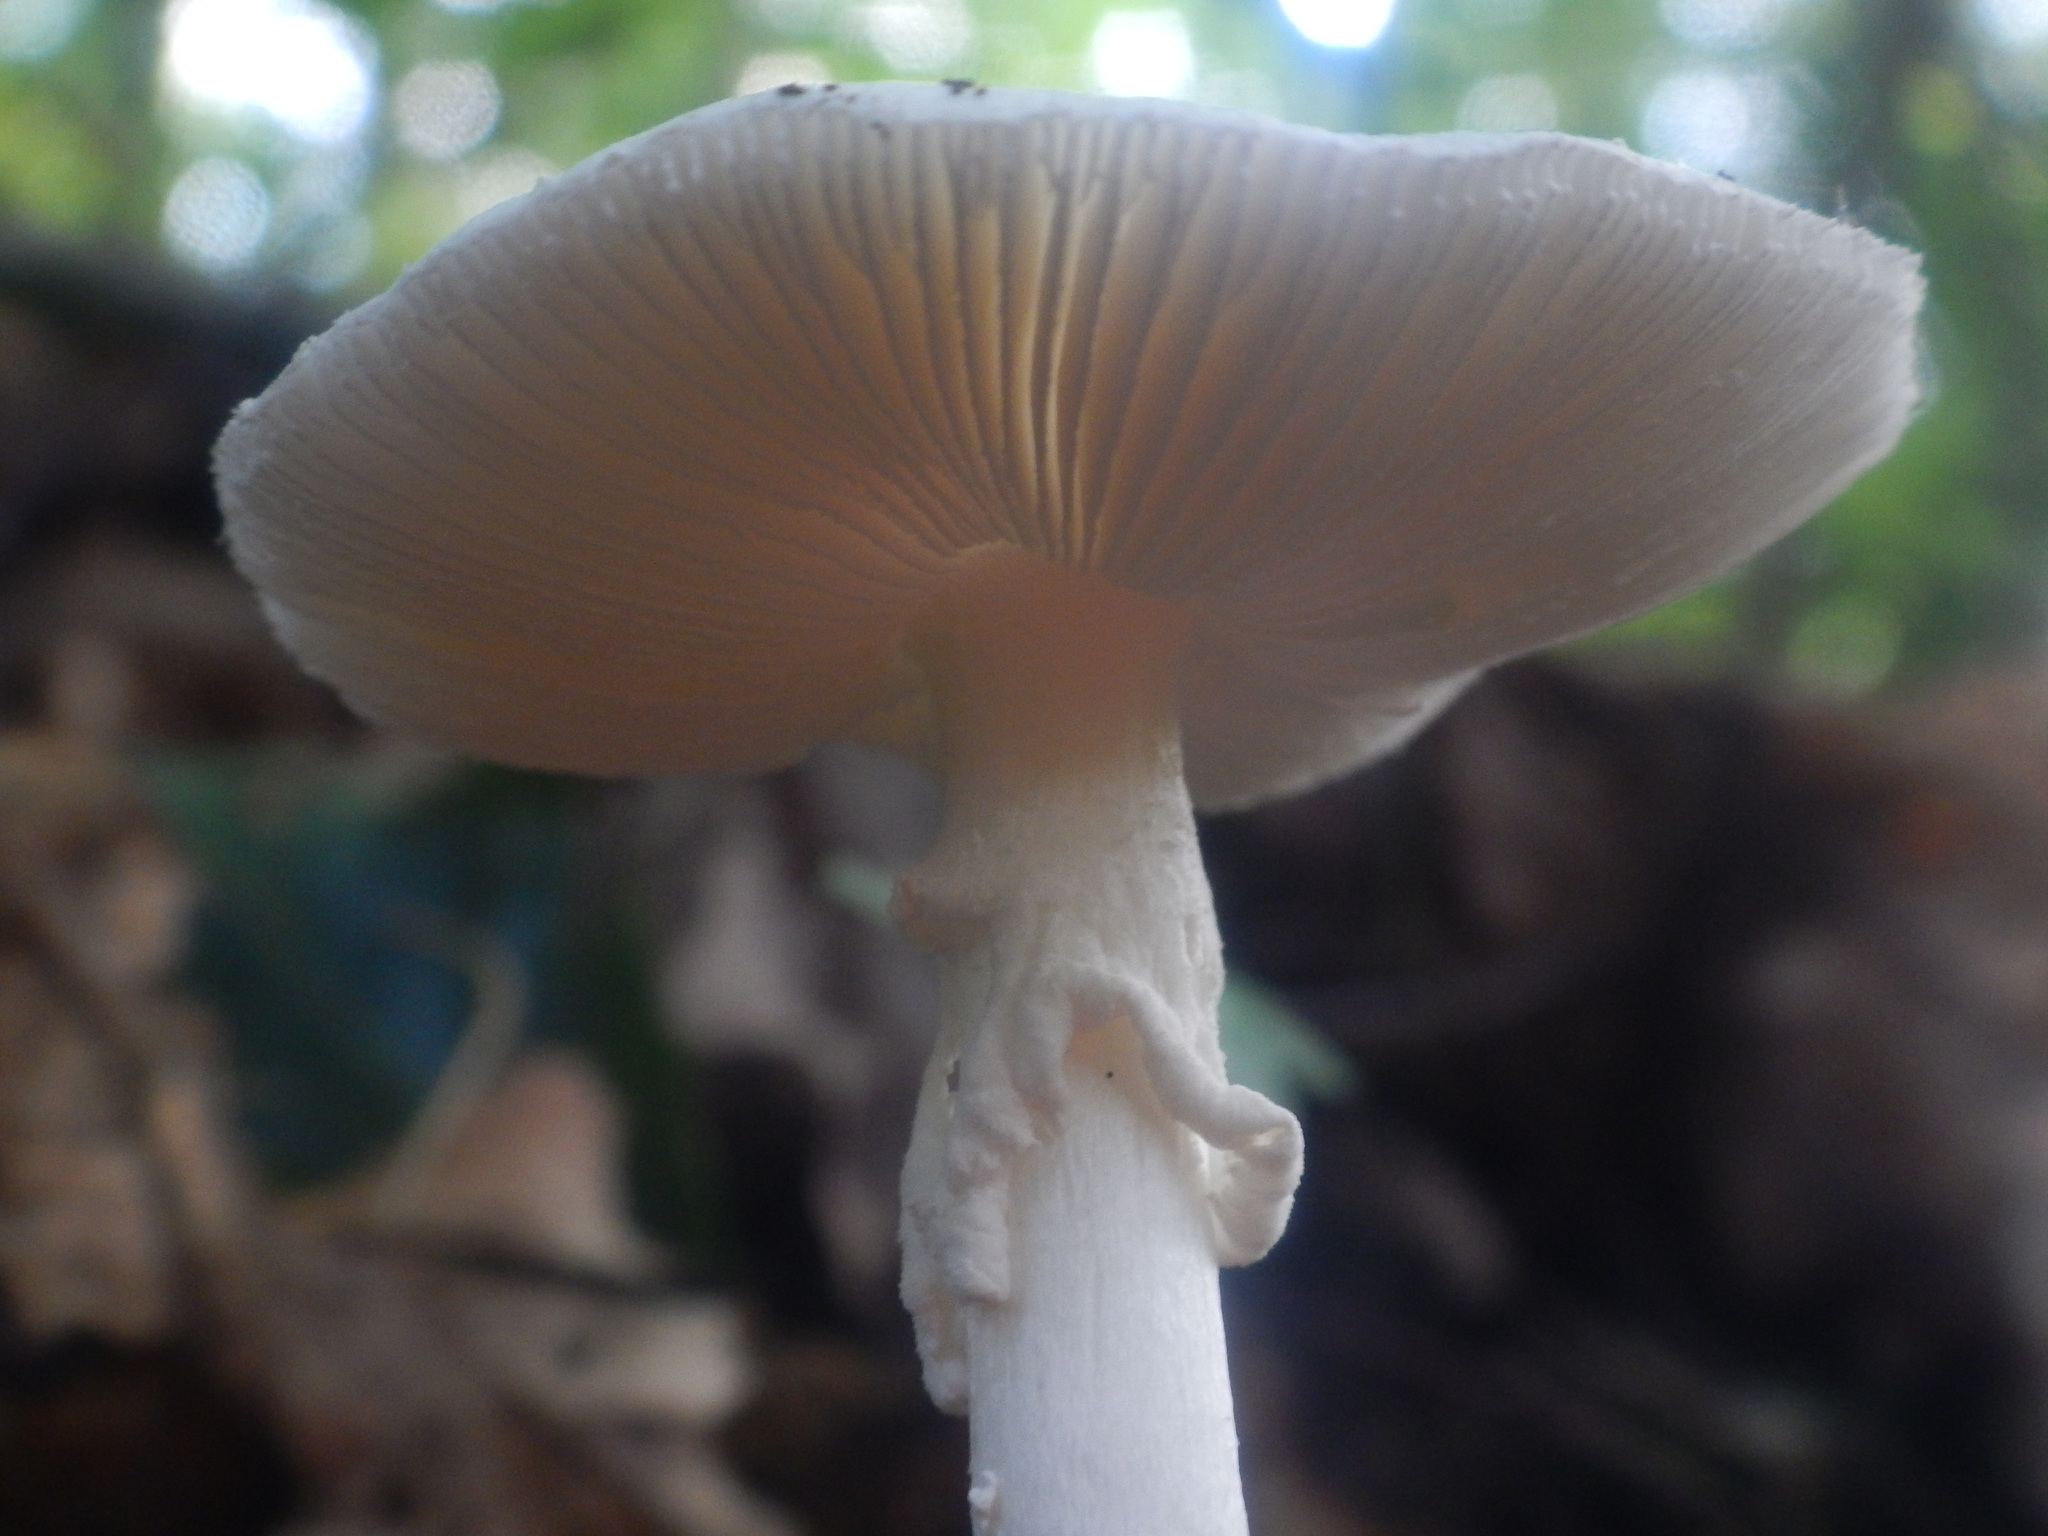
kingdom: Fungi
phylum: Basidiomycota
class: Agaricomycetes
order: Agaricales
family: Amanitaceae
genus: Amanita
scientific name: Amanita bisporigera
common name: Eastern north american destroying angel
